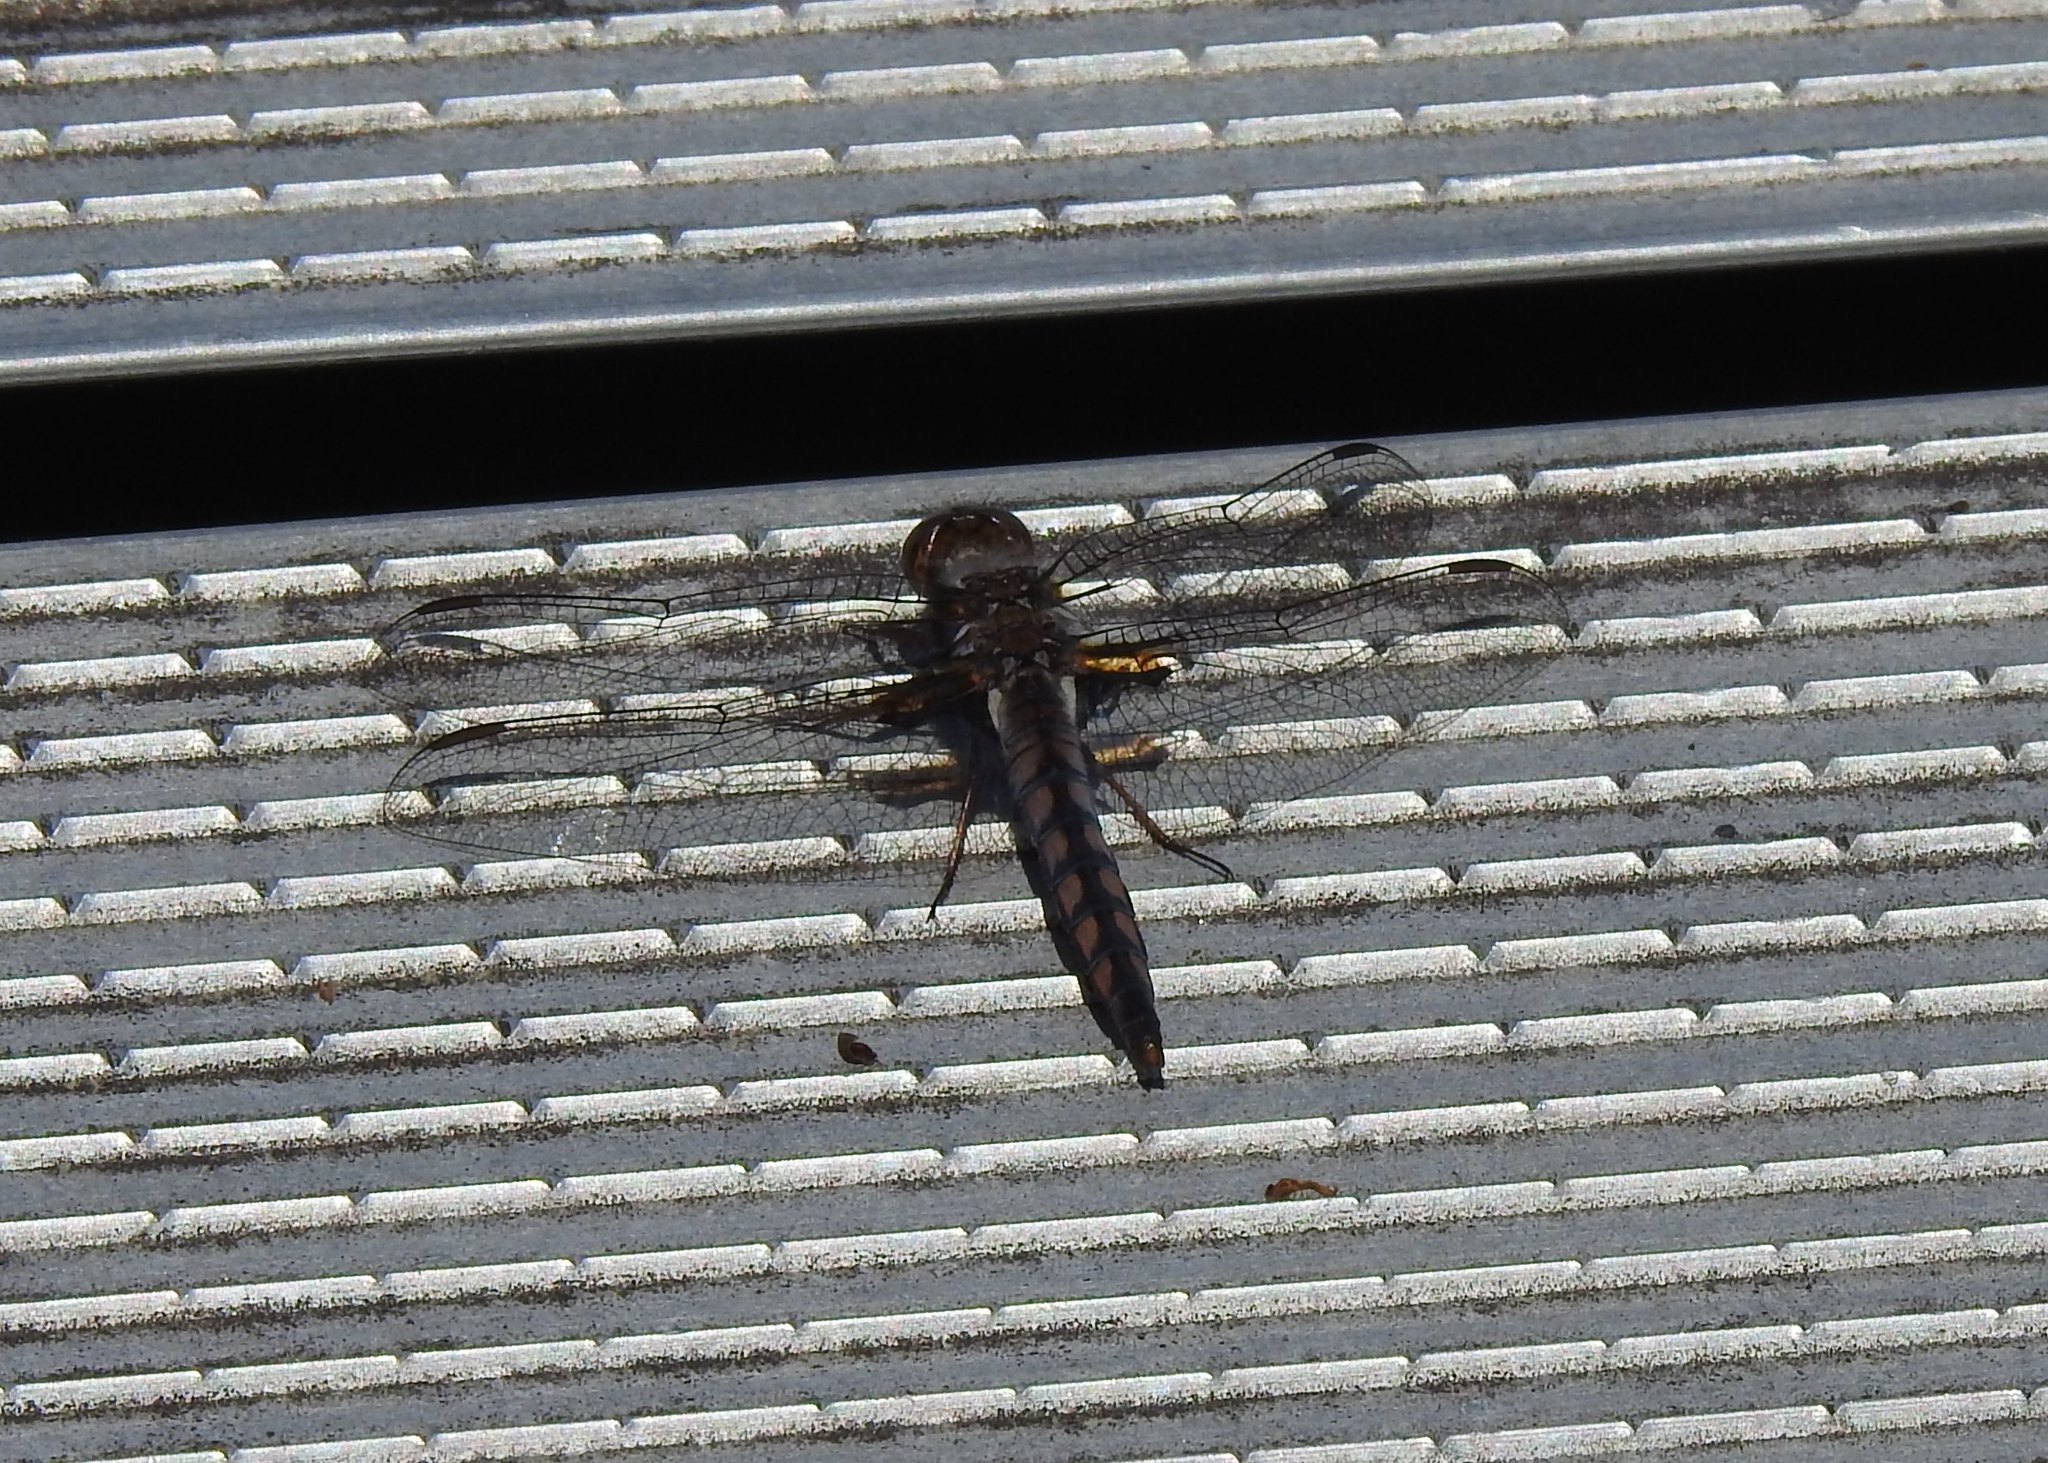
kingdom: Animalia
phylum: Arthropoda
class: Insecta
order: Odonata
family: Libellulidae
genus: Ladona
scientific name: Ladona deplanata
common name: Blue corporal
